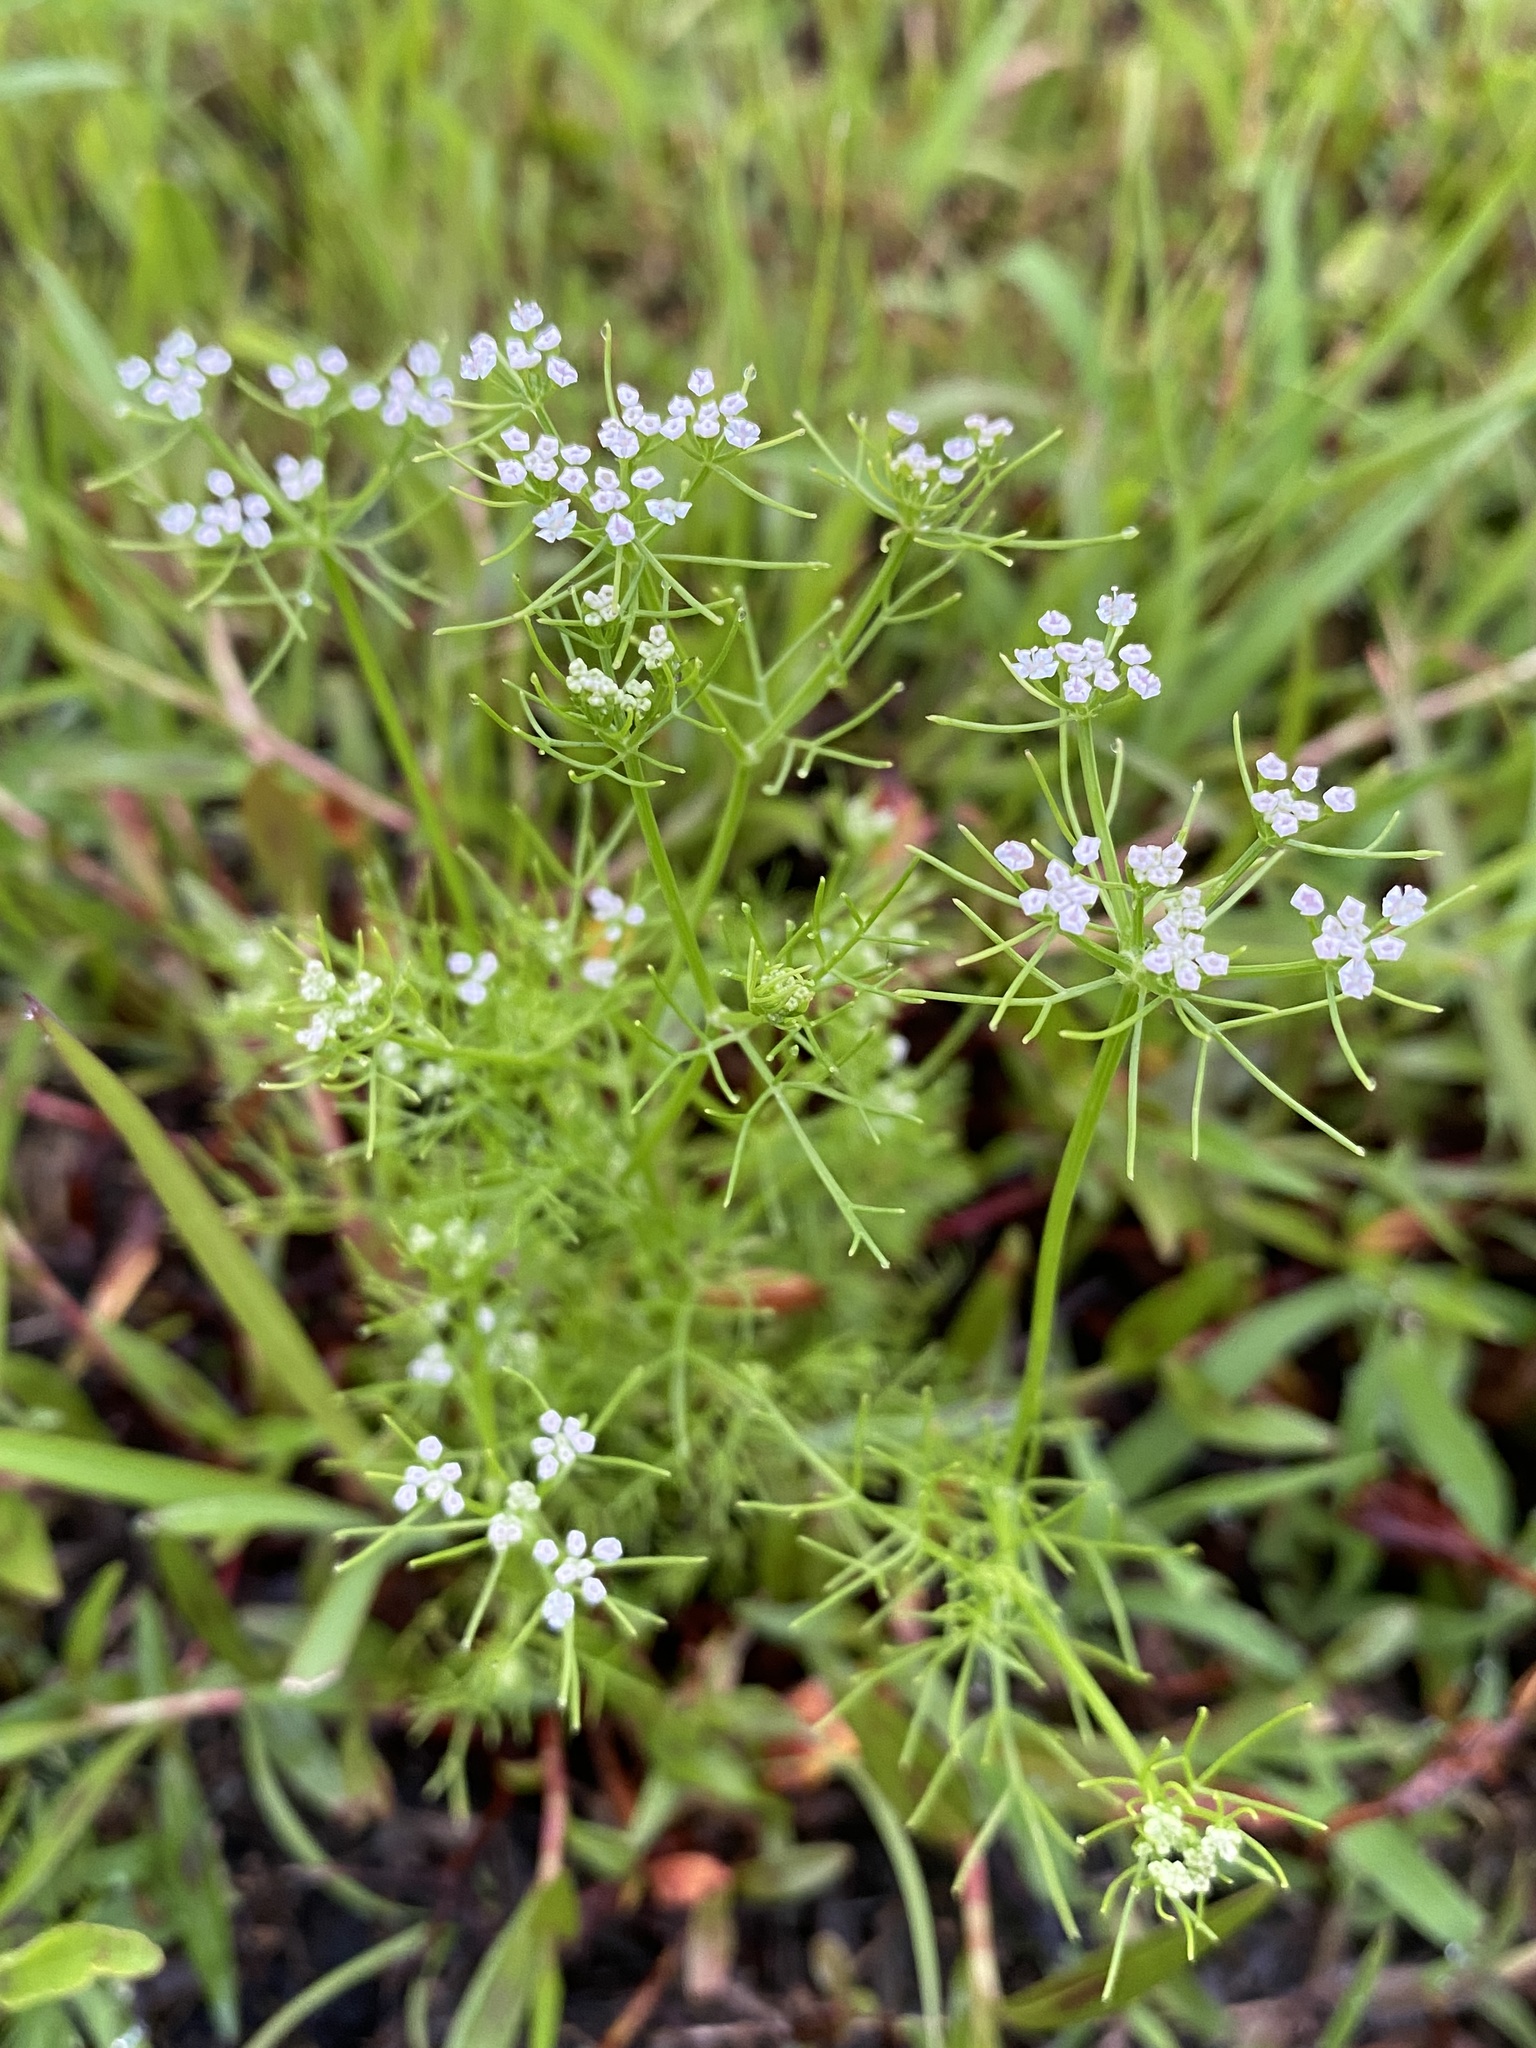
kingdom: Plantae
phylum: Tracheophyta
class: Magnoliopsida
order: Apiales
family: Apiaceae
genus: Ptilimnium
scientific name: Ptilimnium capillaceum
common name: Herbwilliam
